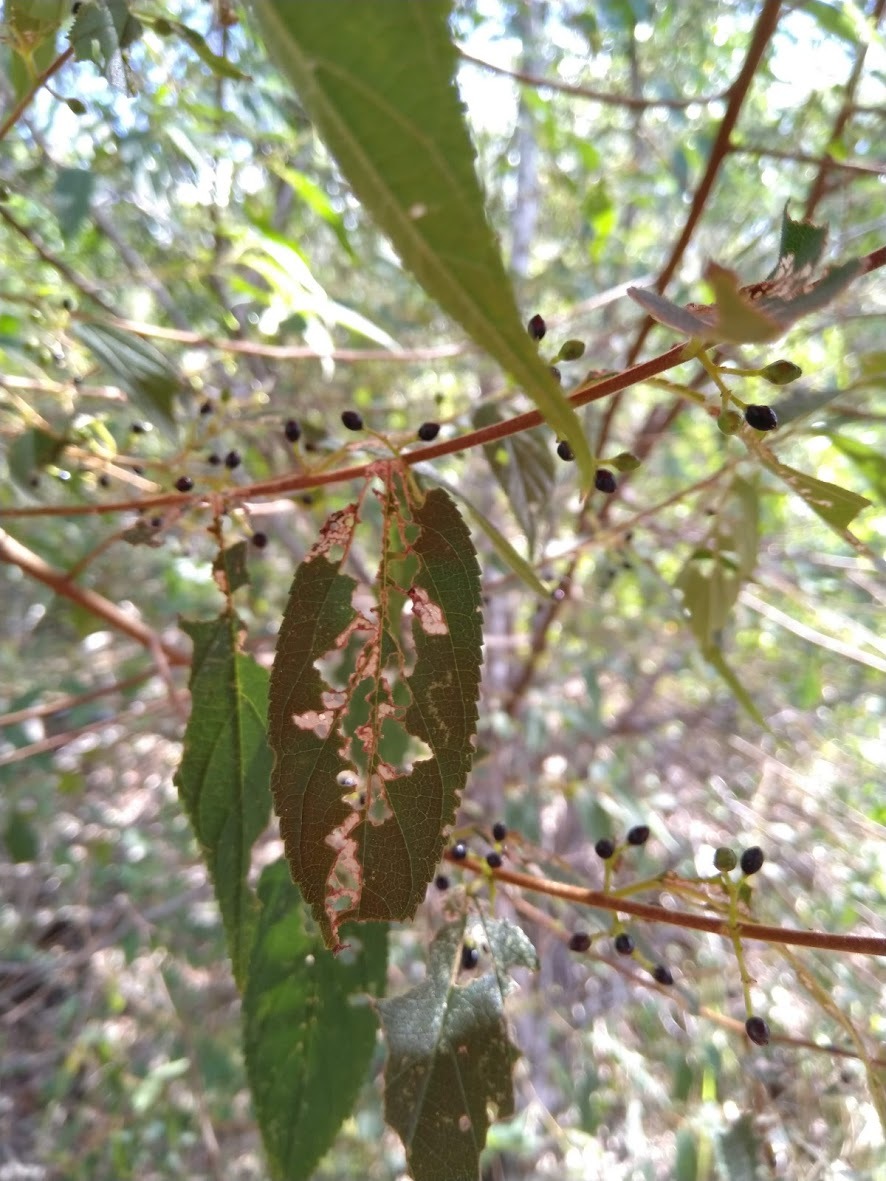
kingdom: Plantae
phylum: Tracheophyta
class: Magnoliopsida
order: Rosales
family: Cannabaceae
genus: Trema
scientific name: Trema tomentosum
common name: Peach-leaf-poisonbush
